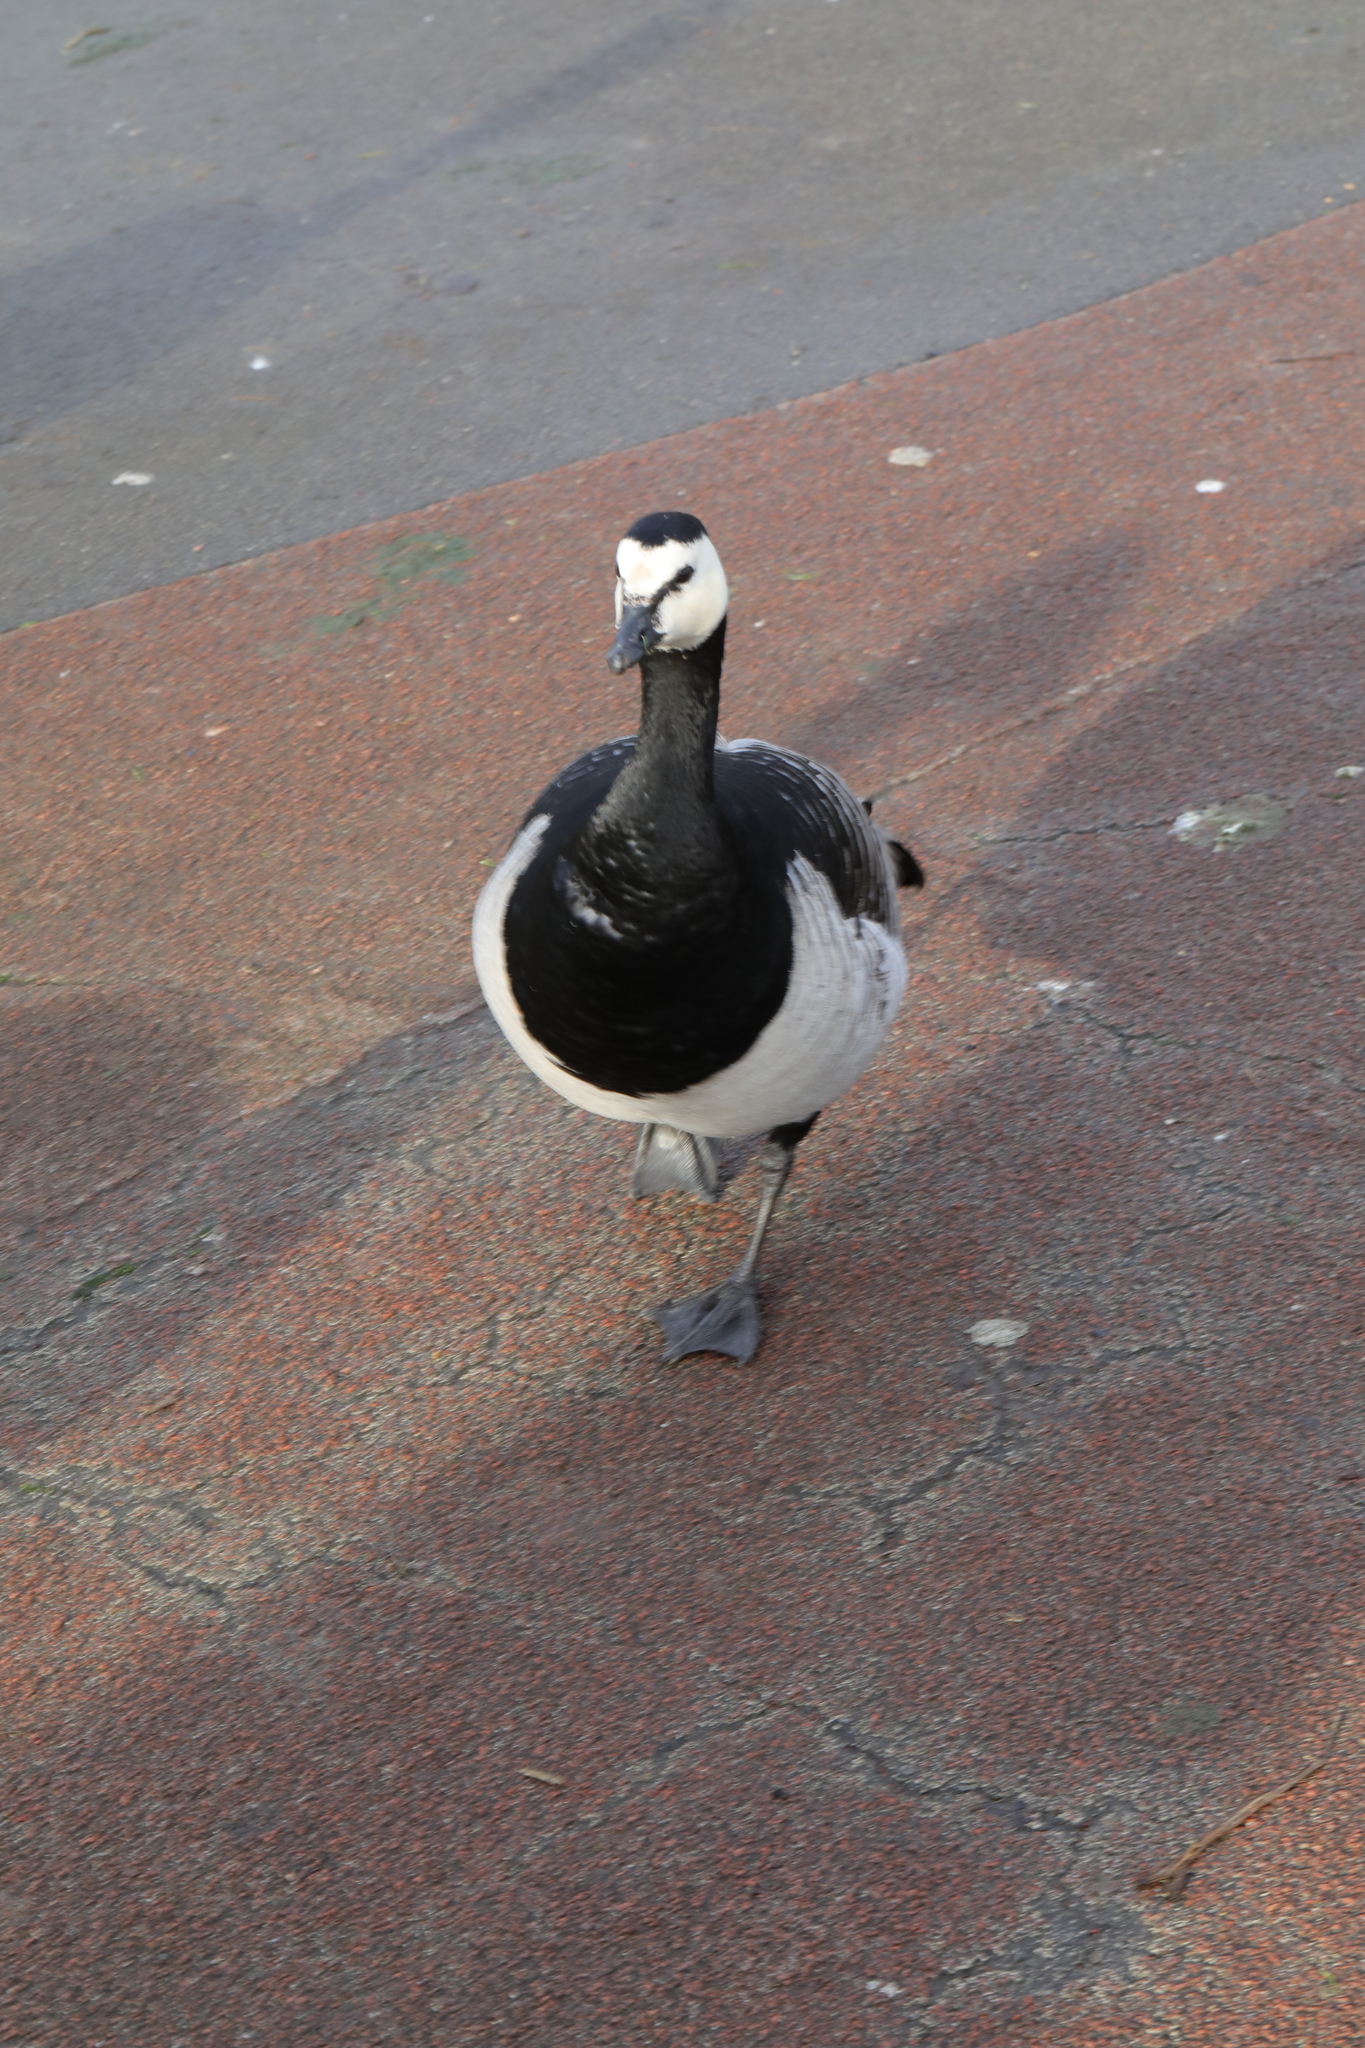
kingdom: Animalia
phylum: Chordata
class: Aves
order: Anseriformes
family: Anatidae
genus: Branta
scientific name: Branta leucopsis
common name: Barnacle goose
